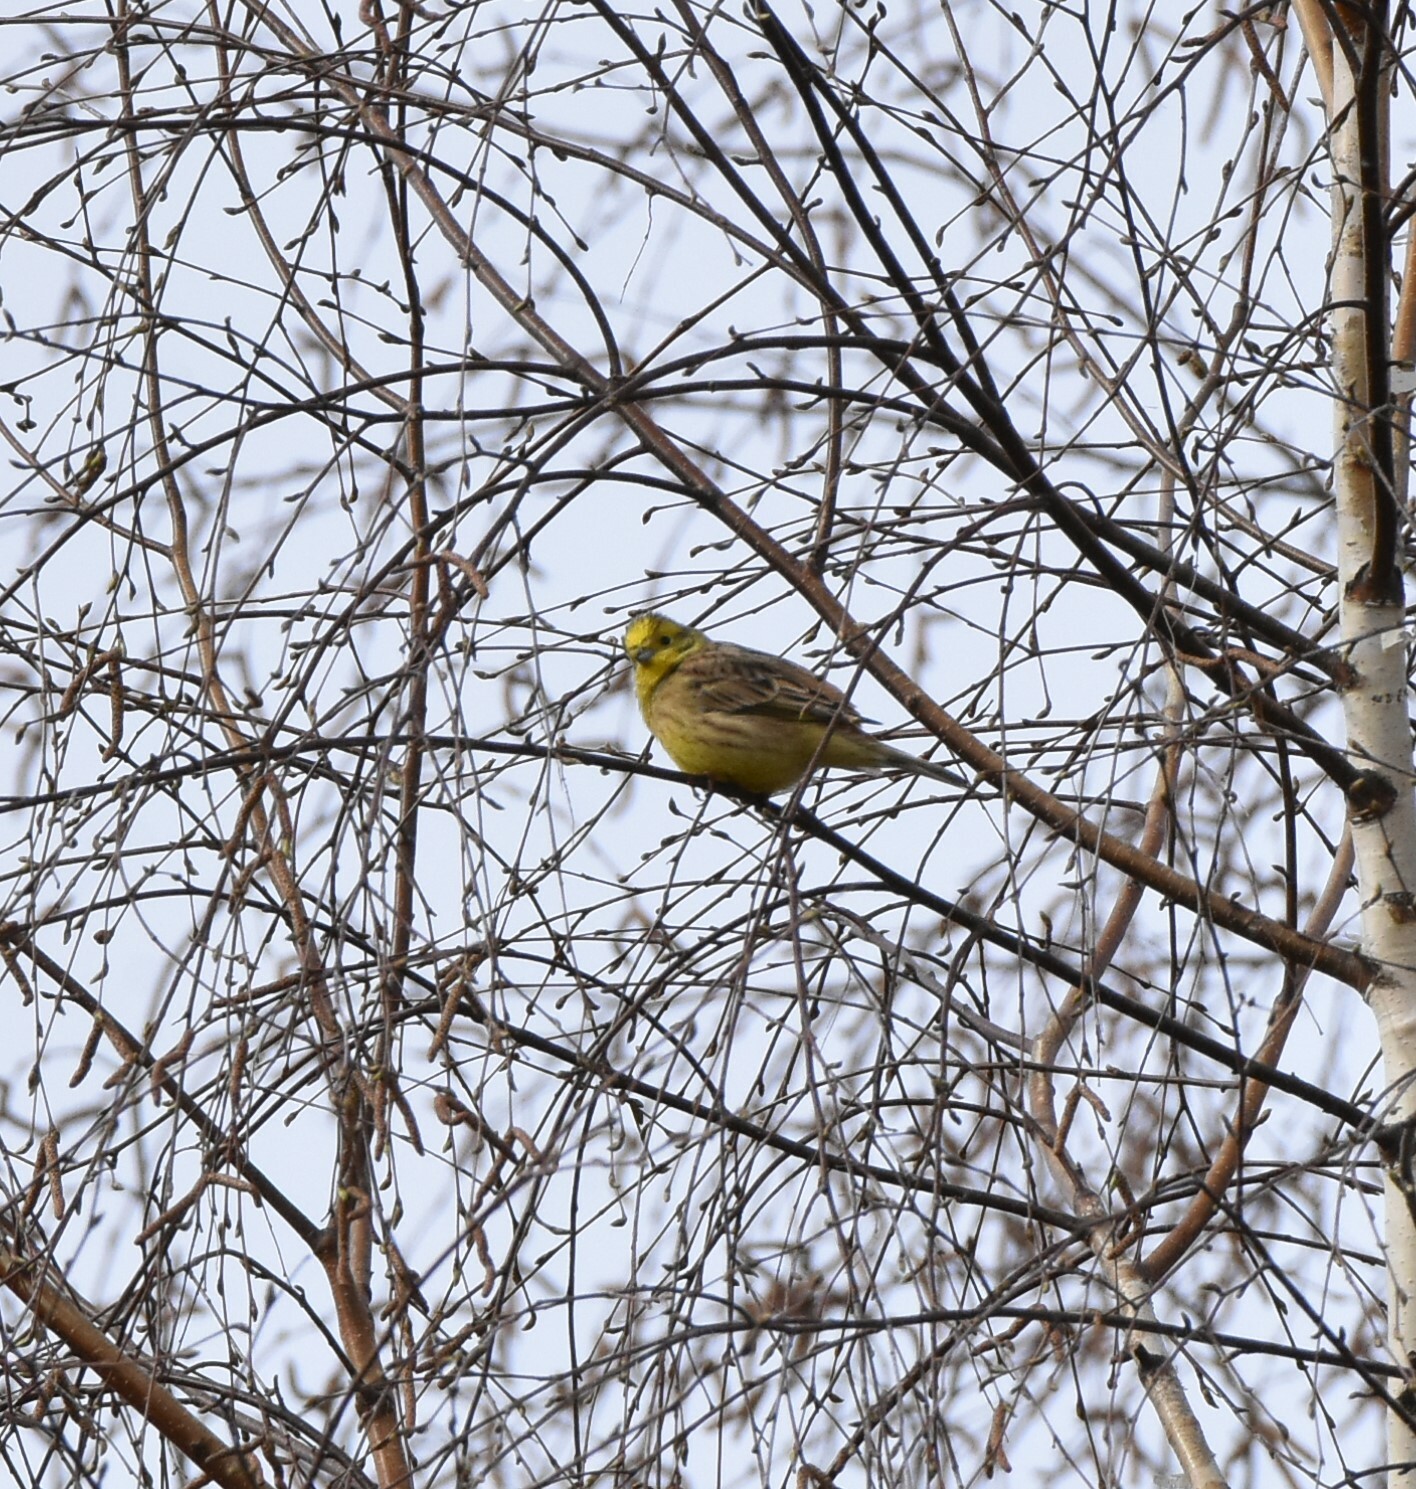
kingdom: Animalia
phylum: Chordata
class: Aves
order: Passeriformes
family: Emberizidae
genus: Emberiza
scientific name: Emberiza citrinella
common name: Yellowhammer
